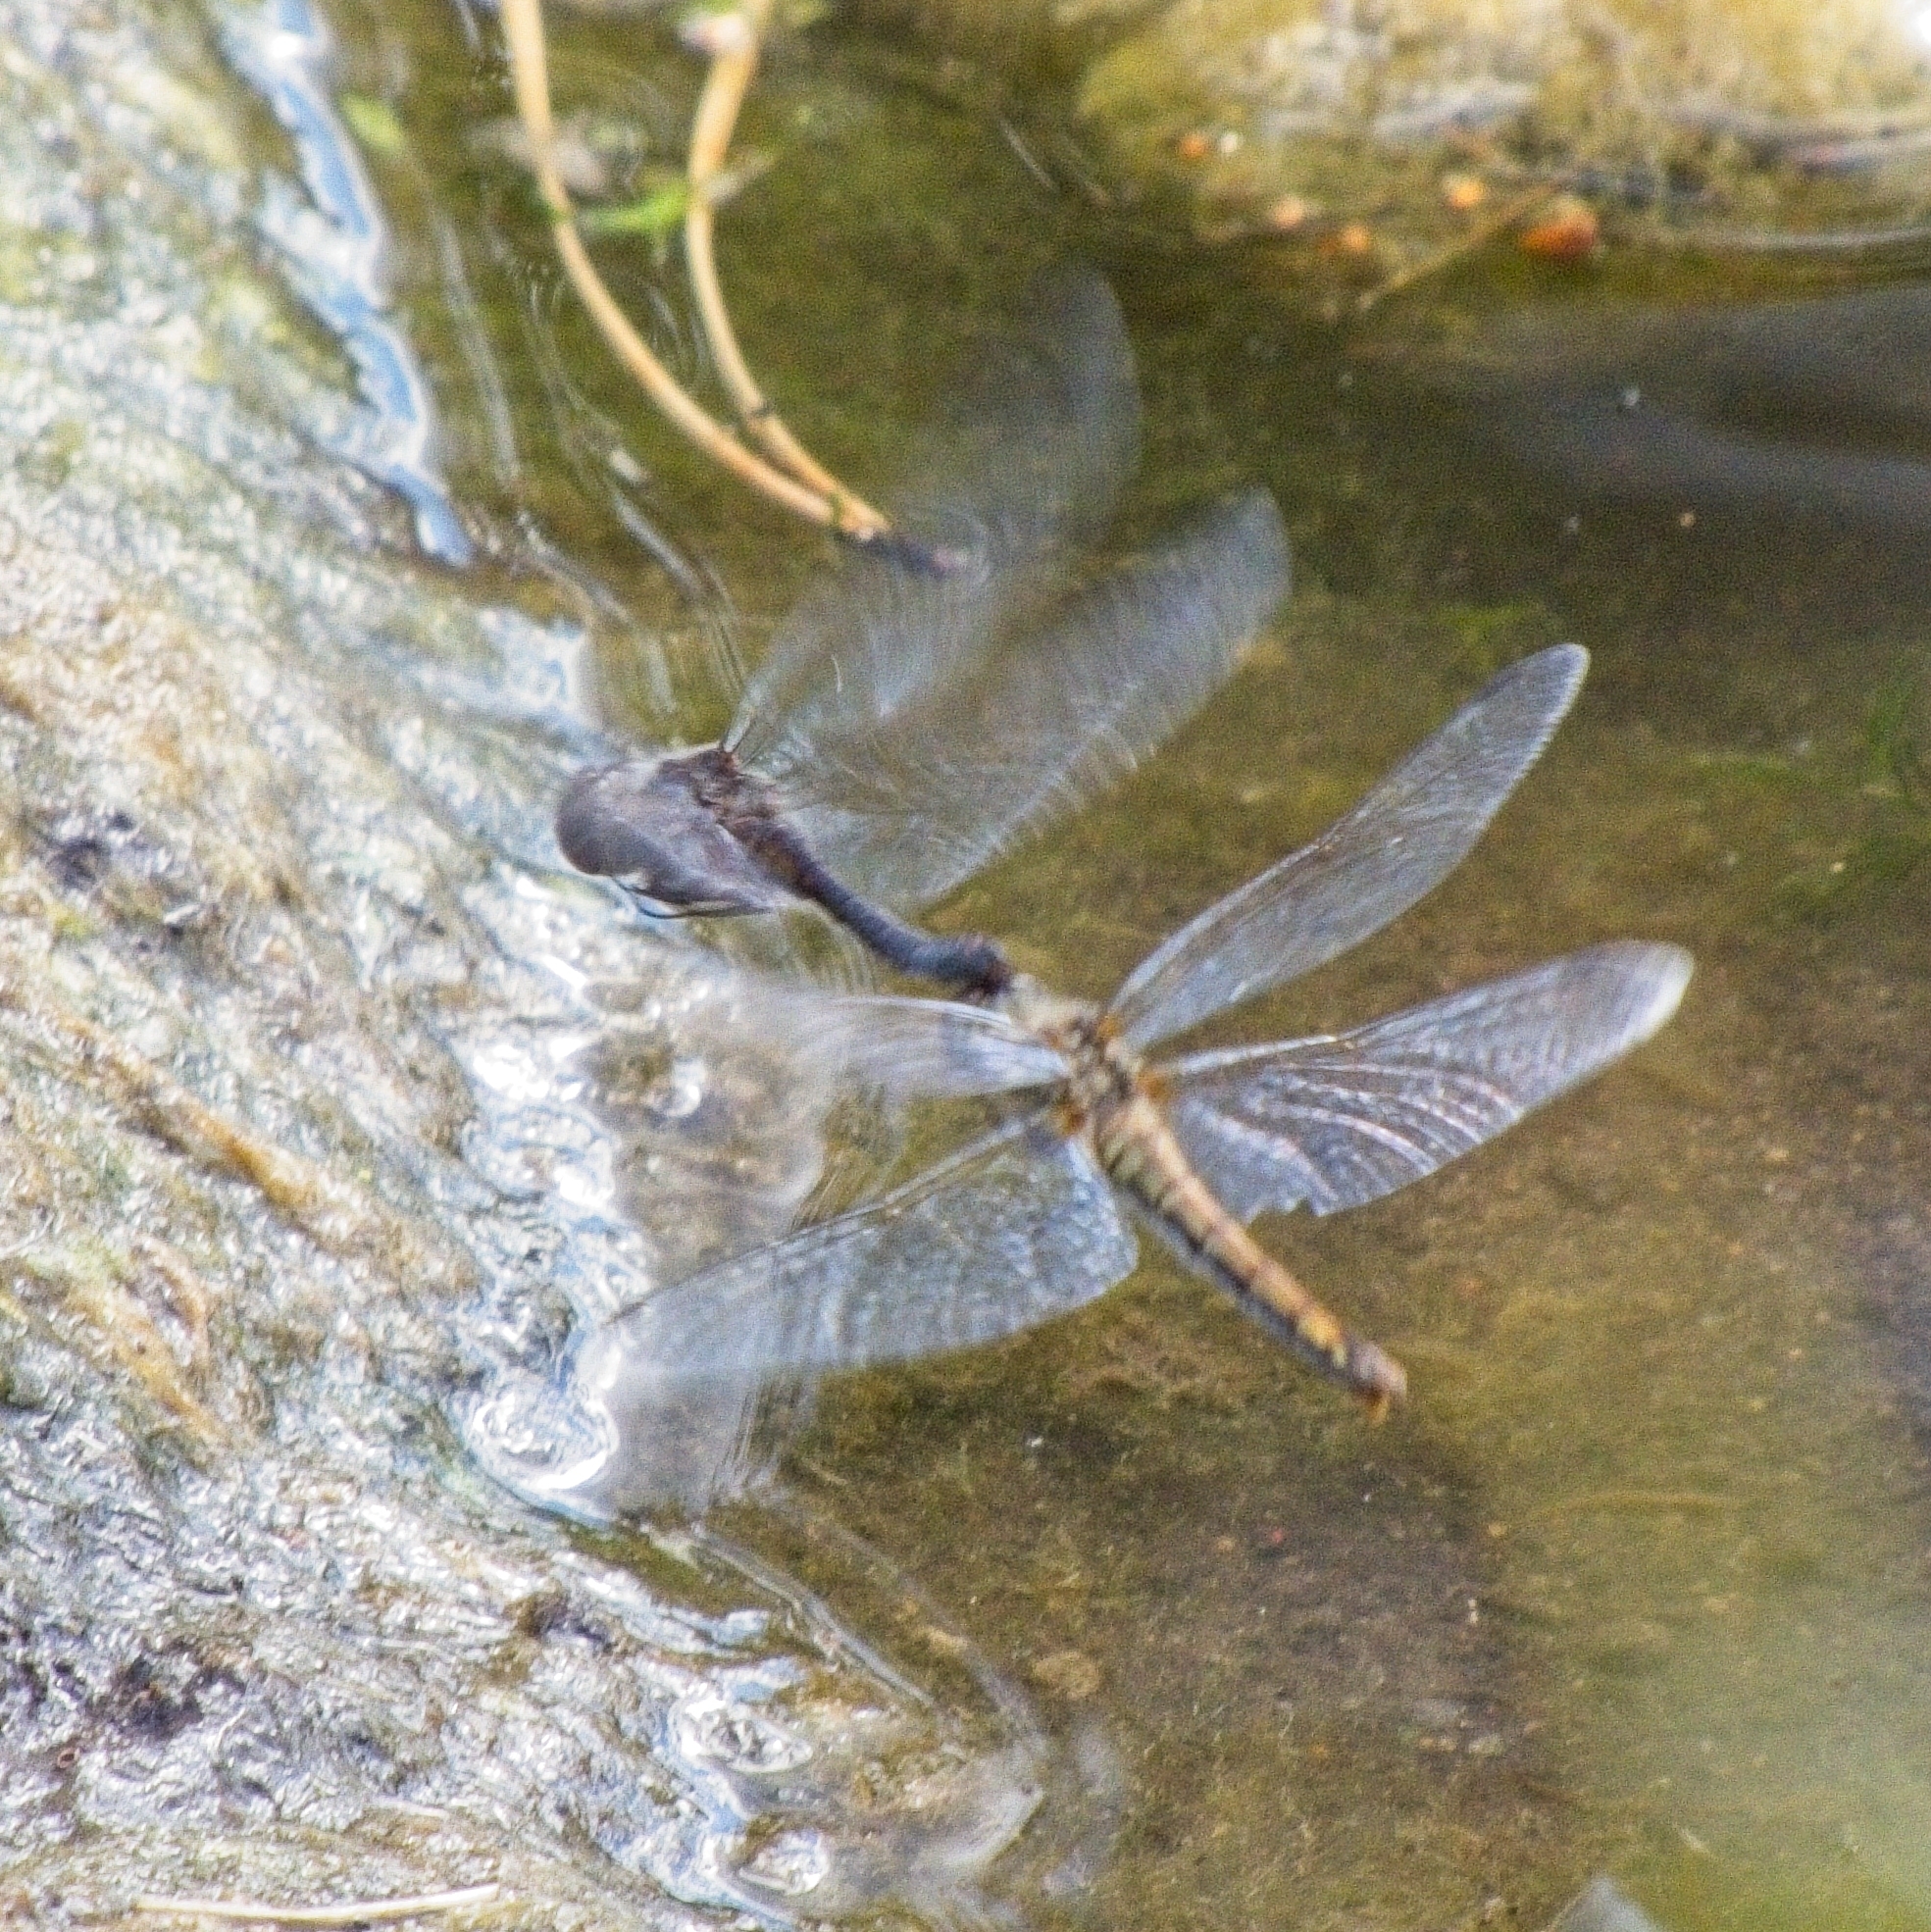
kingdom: Animalia
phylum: Arthropoda
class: Insecta
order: Odonata
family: Libellulidae
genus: Sympetrum
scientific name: Sympetrum danae
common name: Black darter
